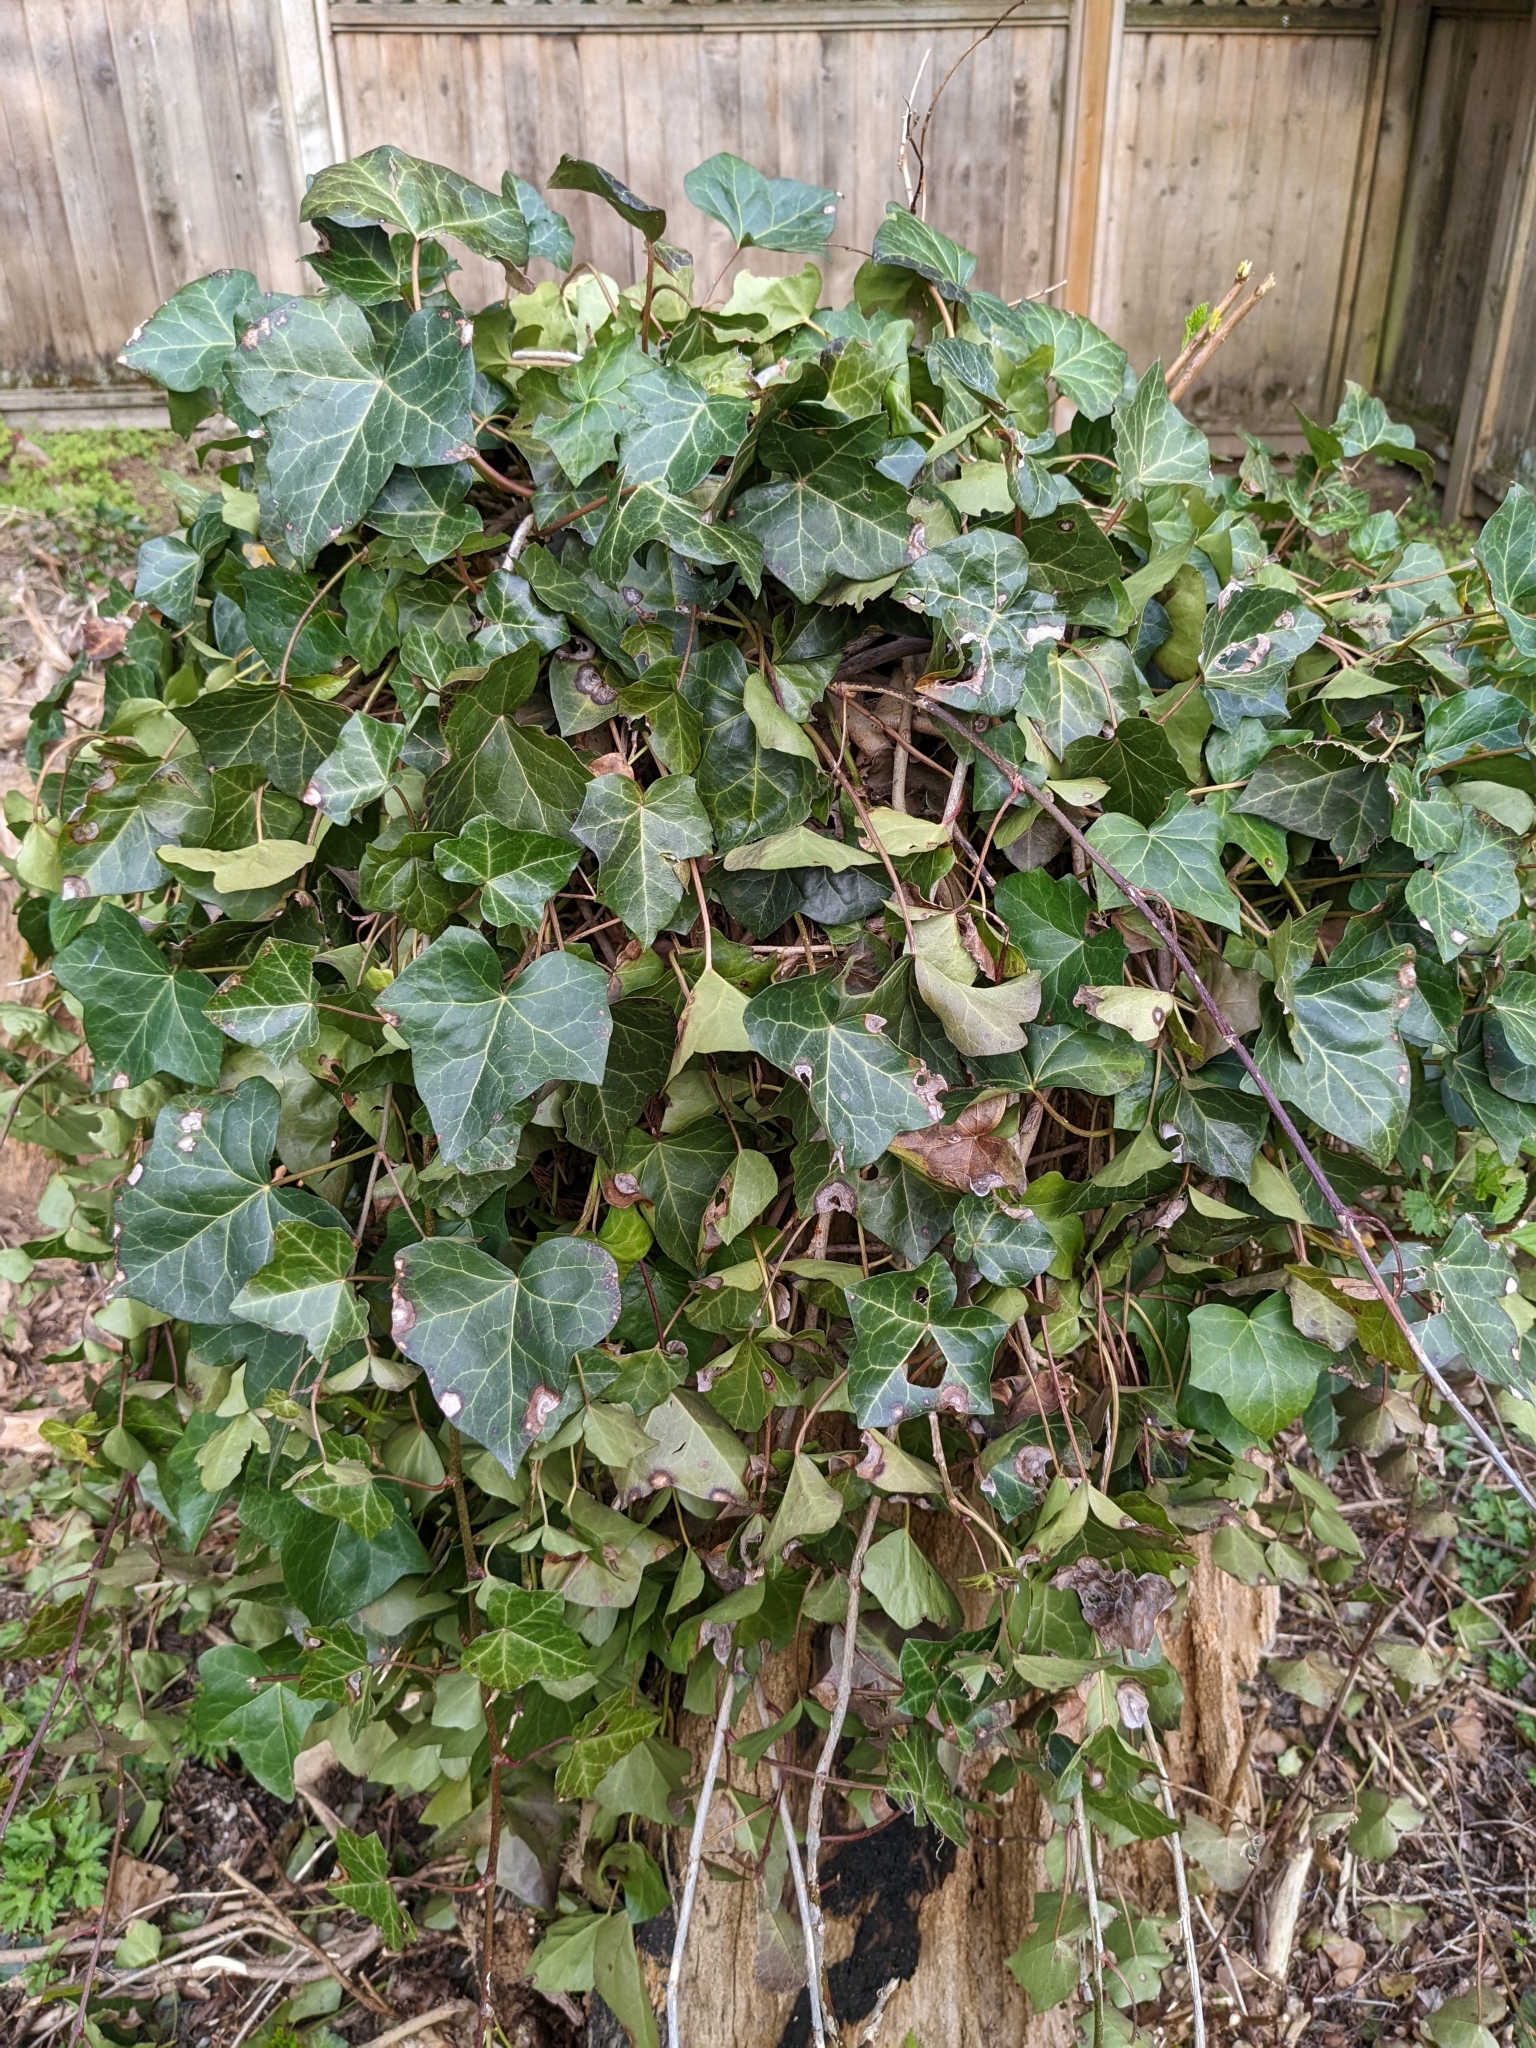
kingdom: Plantae
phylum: Tracheophyta
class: Magnoliopsida
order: Apiales
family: Araliaceae
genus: Hedera
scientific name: Hedera helix
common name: Ivy
